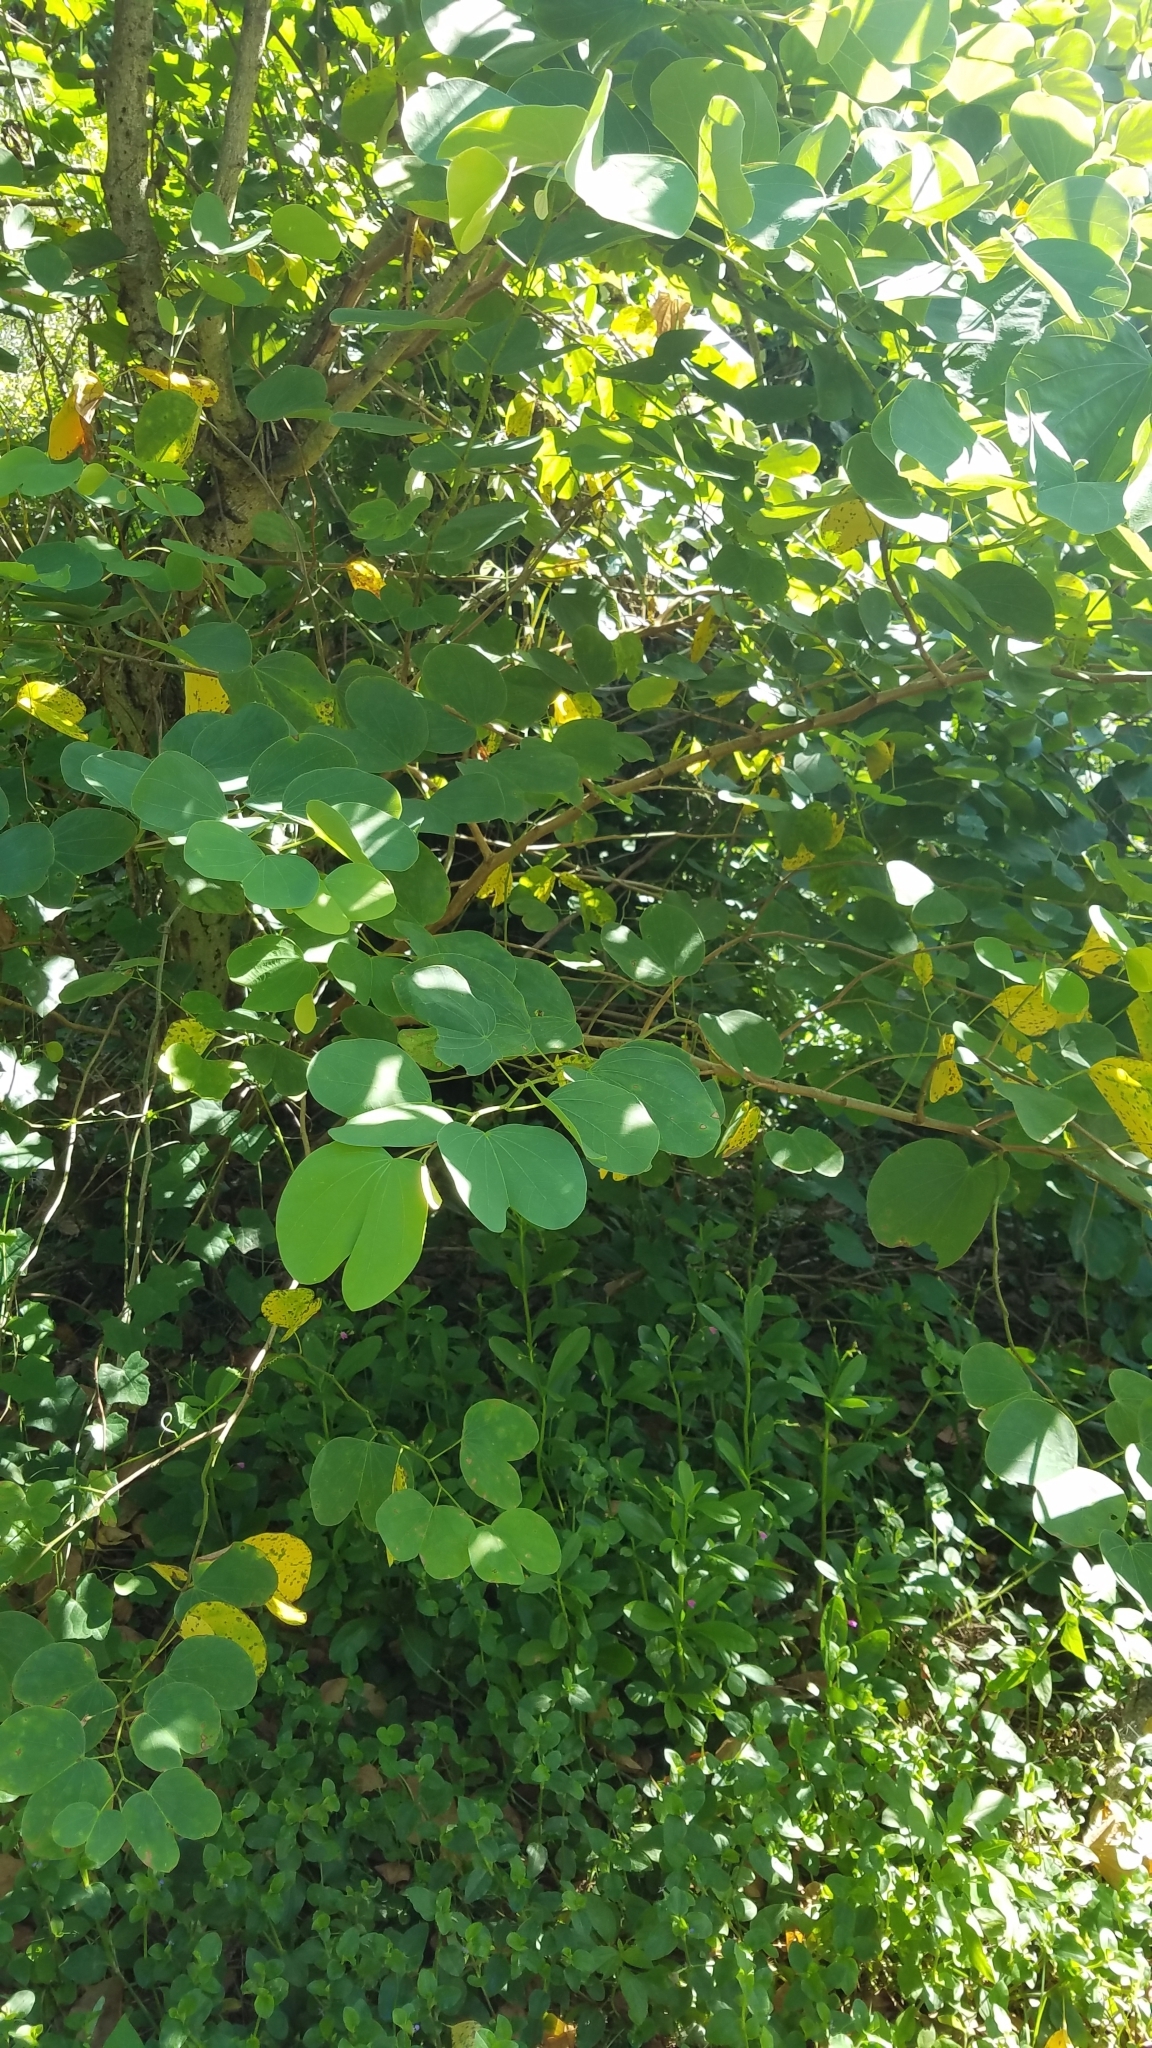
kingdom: Plantae
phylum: Tracheophyta
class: Magnoliopsida
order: Fabales
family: Fabaceae
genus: Bauhinia
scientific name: Bauhinia
